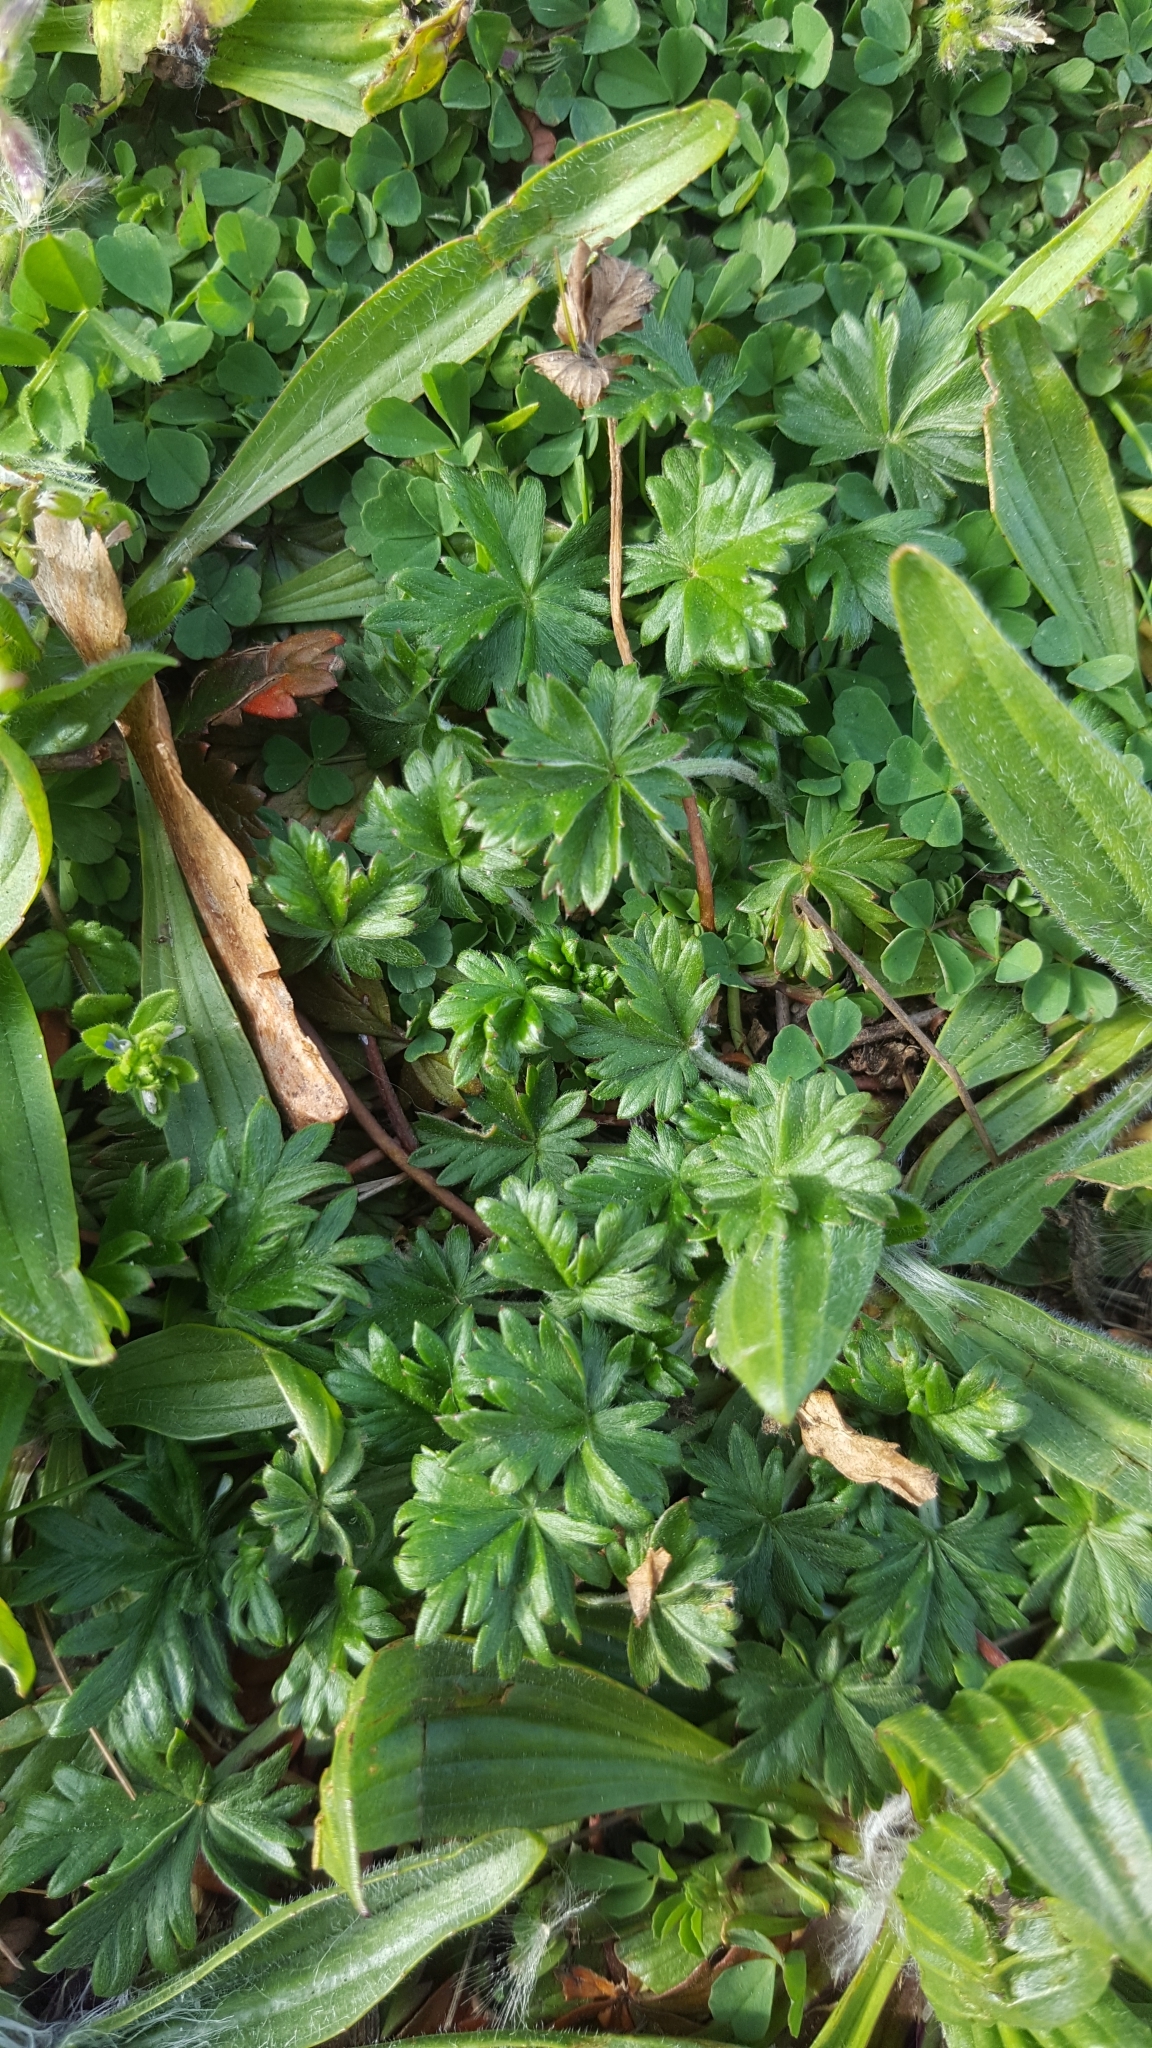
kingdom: Plantae
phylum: Tracheophyta
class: Magnoliopsida
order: Rosales
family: Rosaceae
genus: Potentilla
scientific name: Potentilla argentea
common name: Hoary cinquefoil
